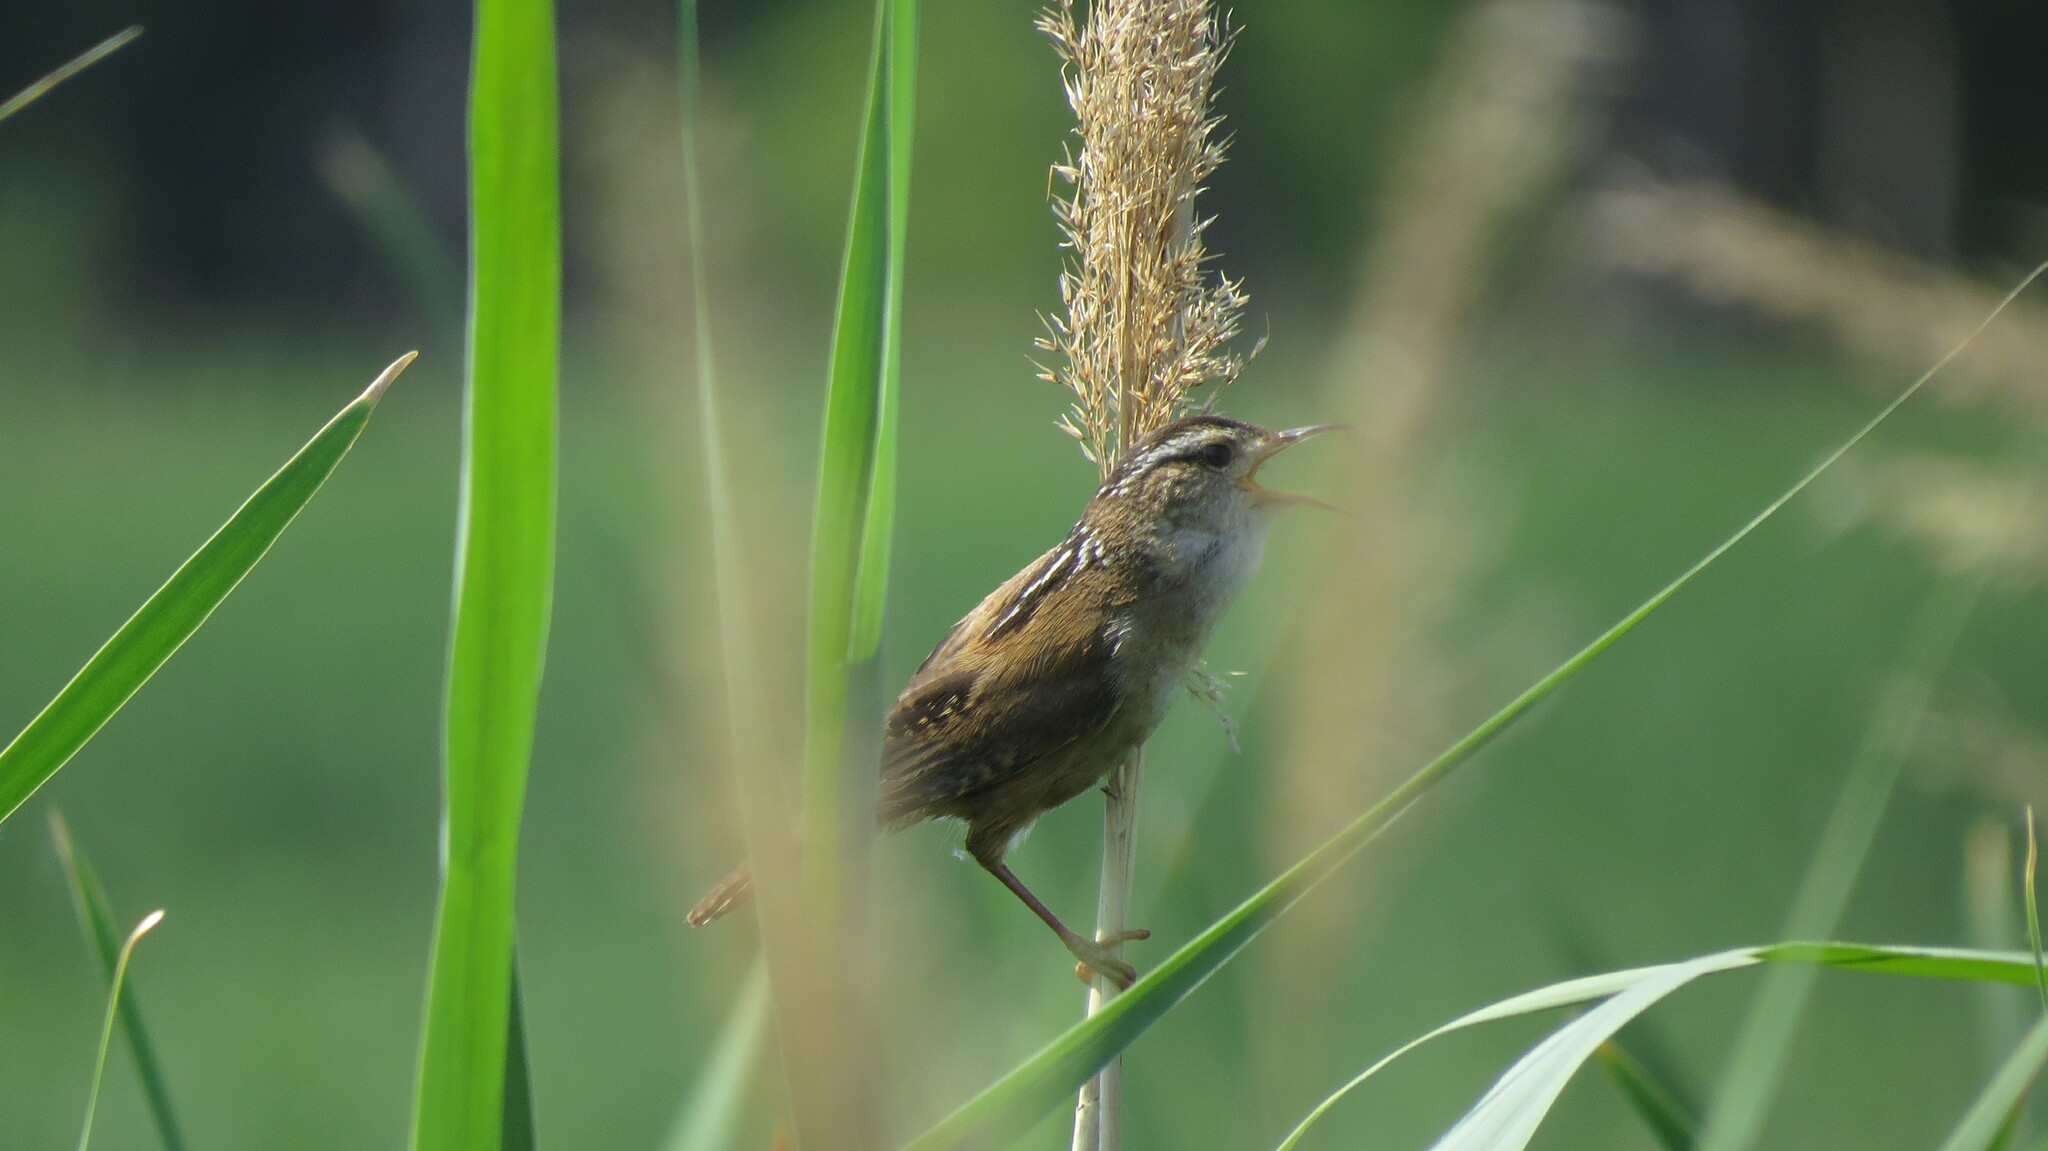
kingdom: Animalia
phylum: Chordata
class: Aves
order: Passeriformes
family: Troglodytidae
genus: Cistothorus
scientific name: Cistothorus palustris
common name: Marsh wren
